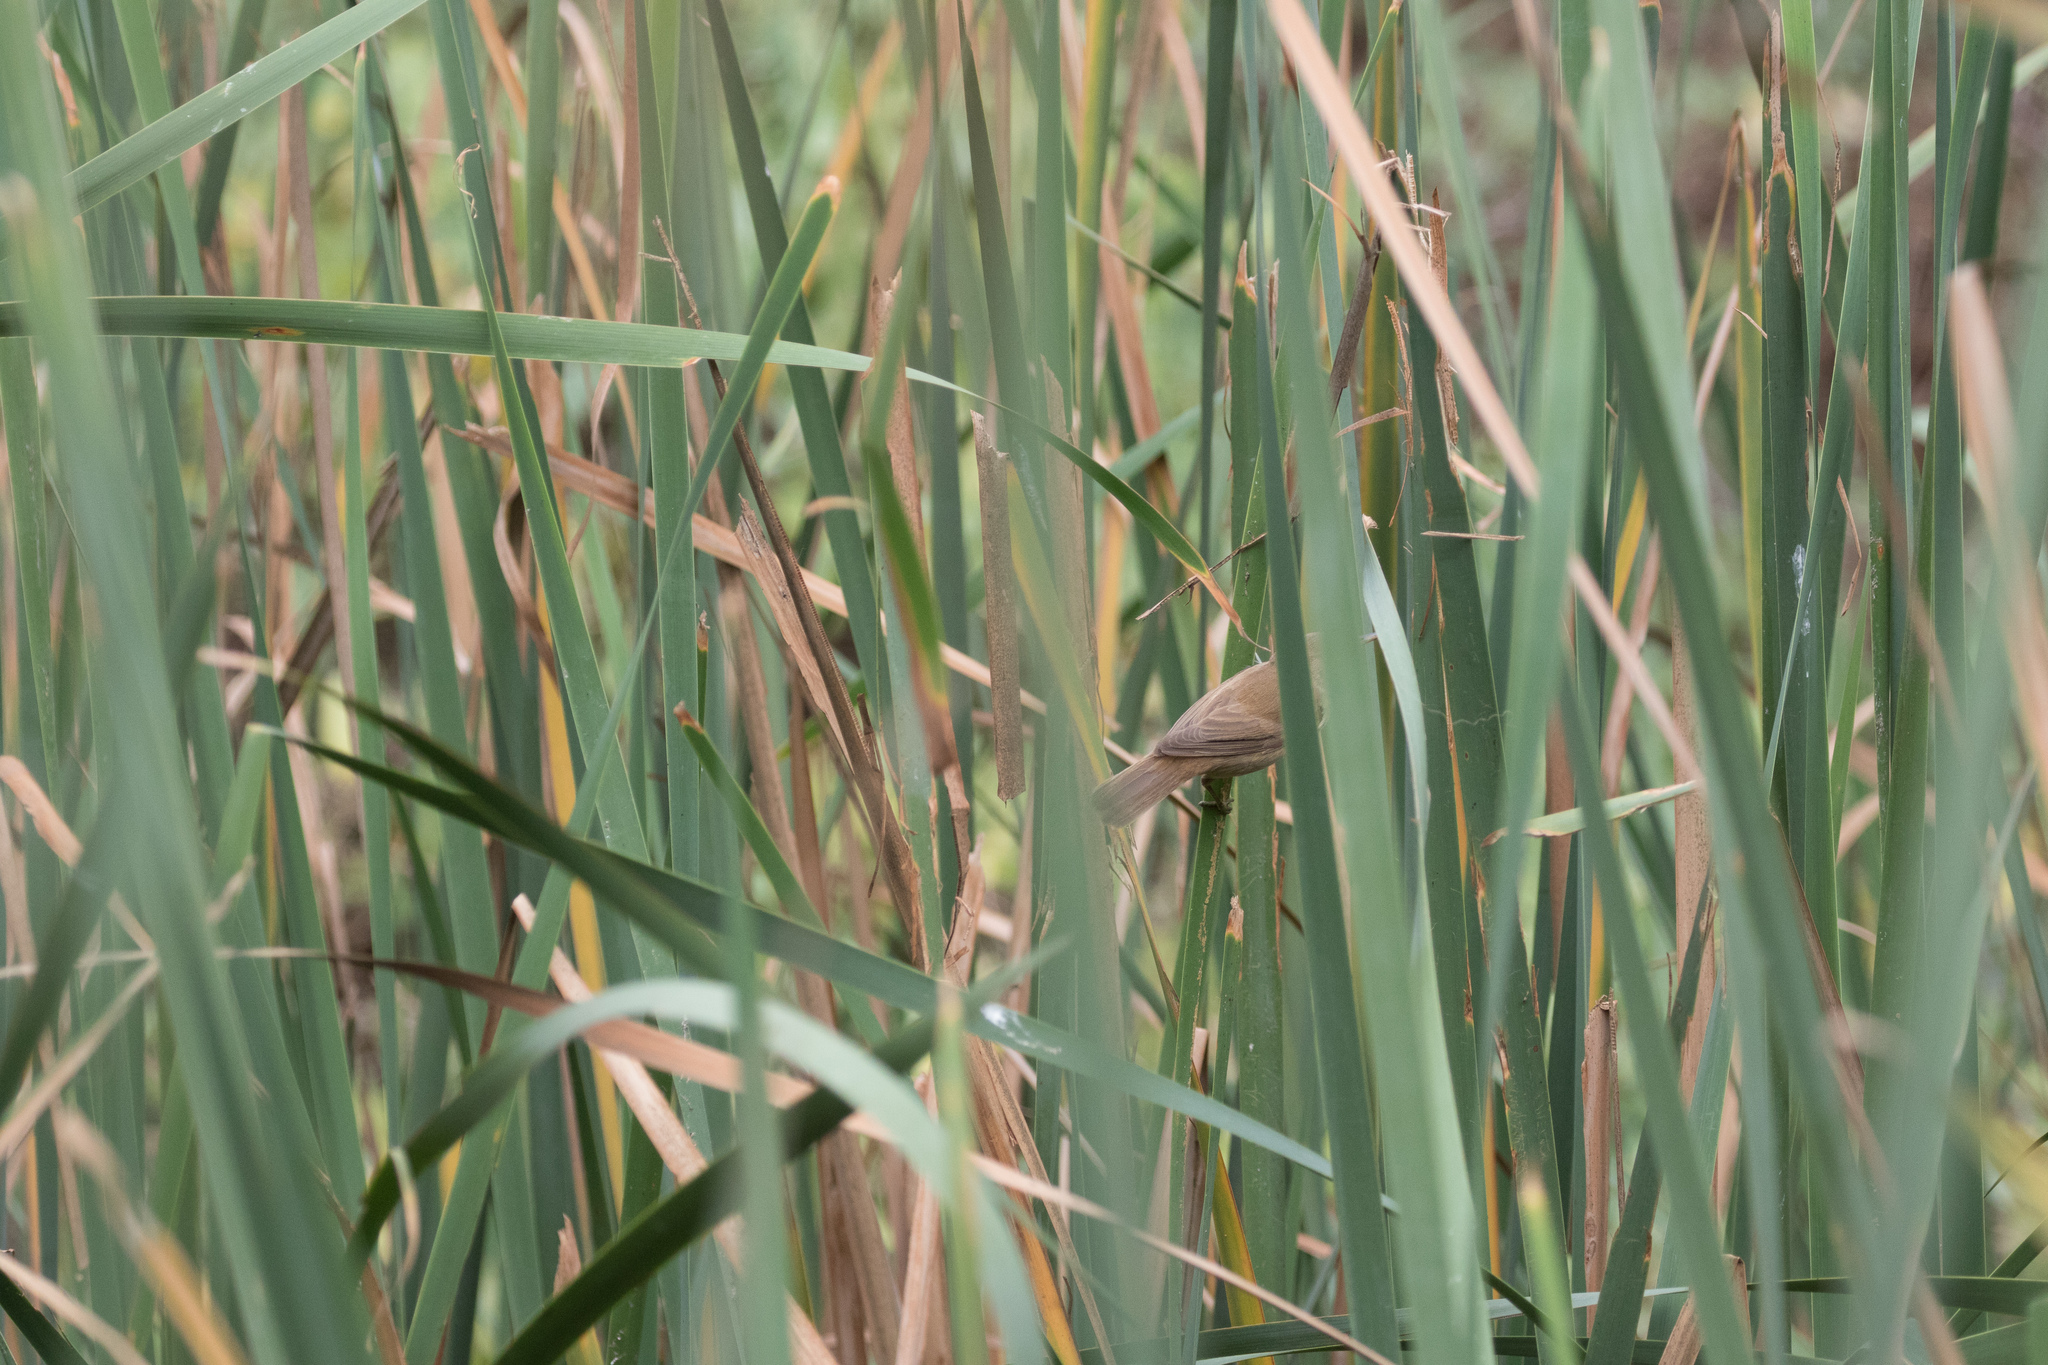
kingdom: Animalia
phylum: Chordata
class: Aves
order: Passeriformes
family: Acrocephalidae
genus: Acrocephalus
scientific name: Acrocephalus scirpaceus
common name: Eurasian reed warbler
